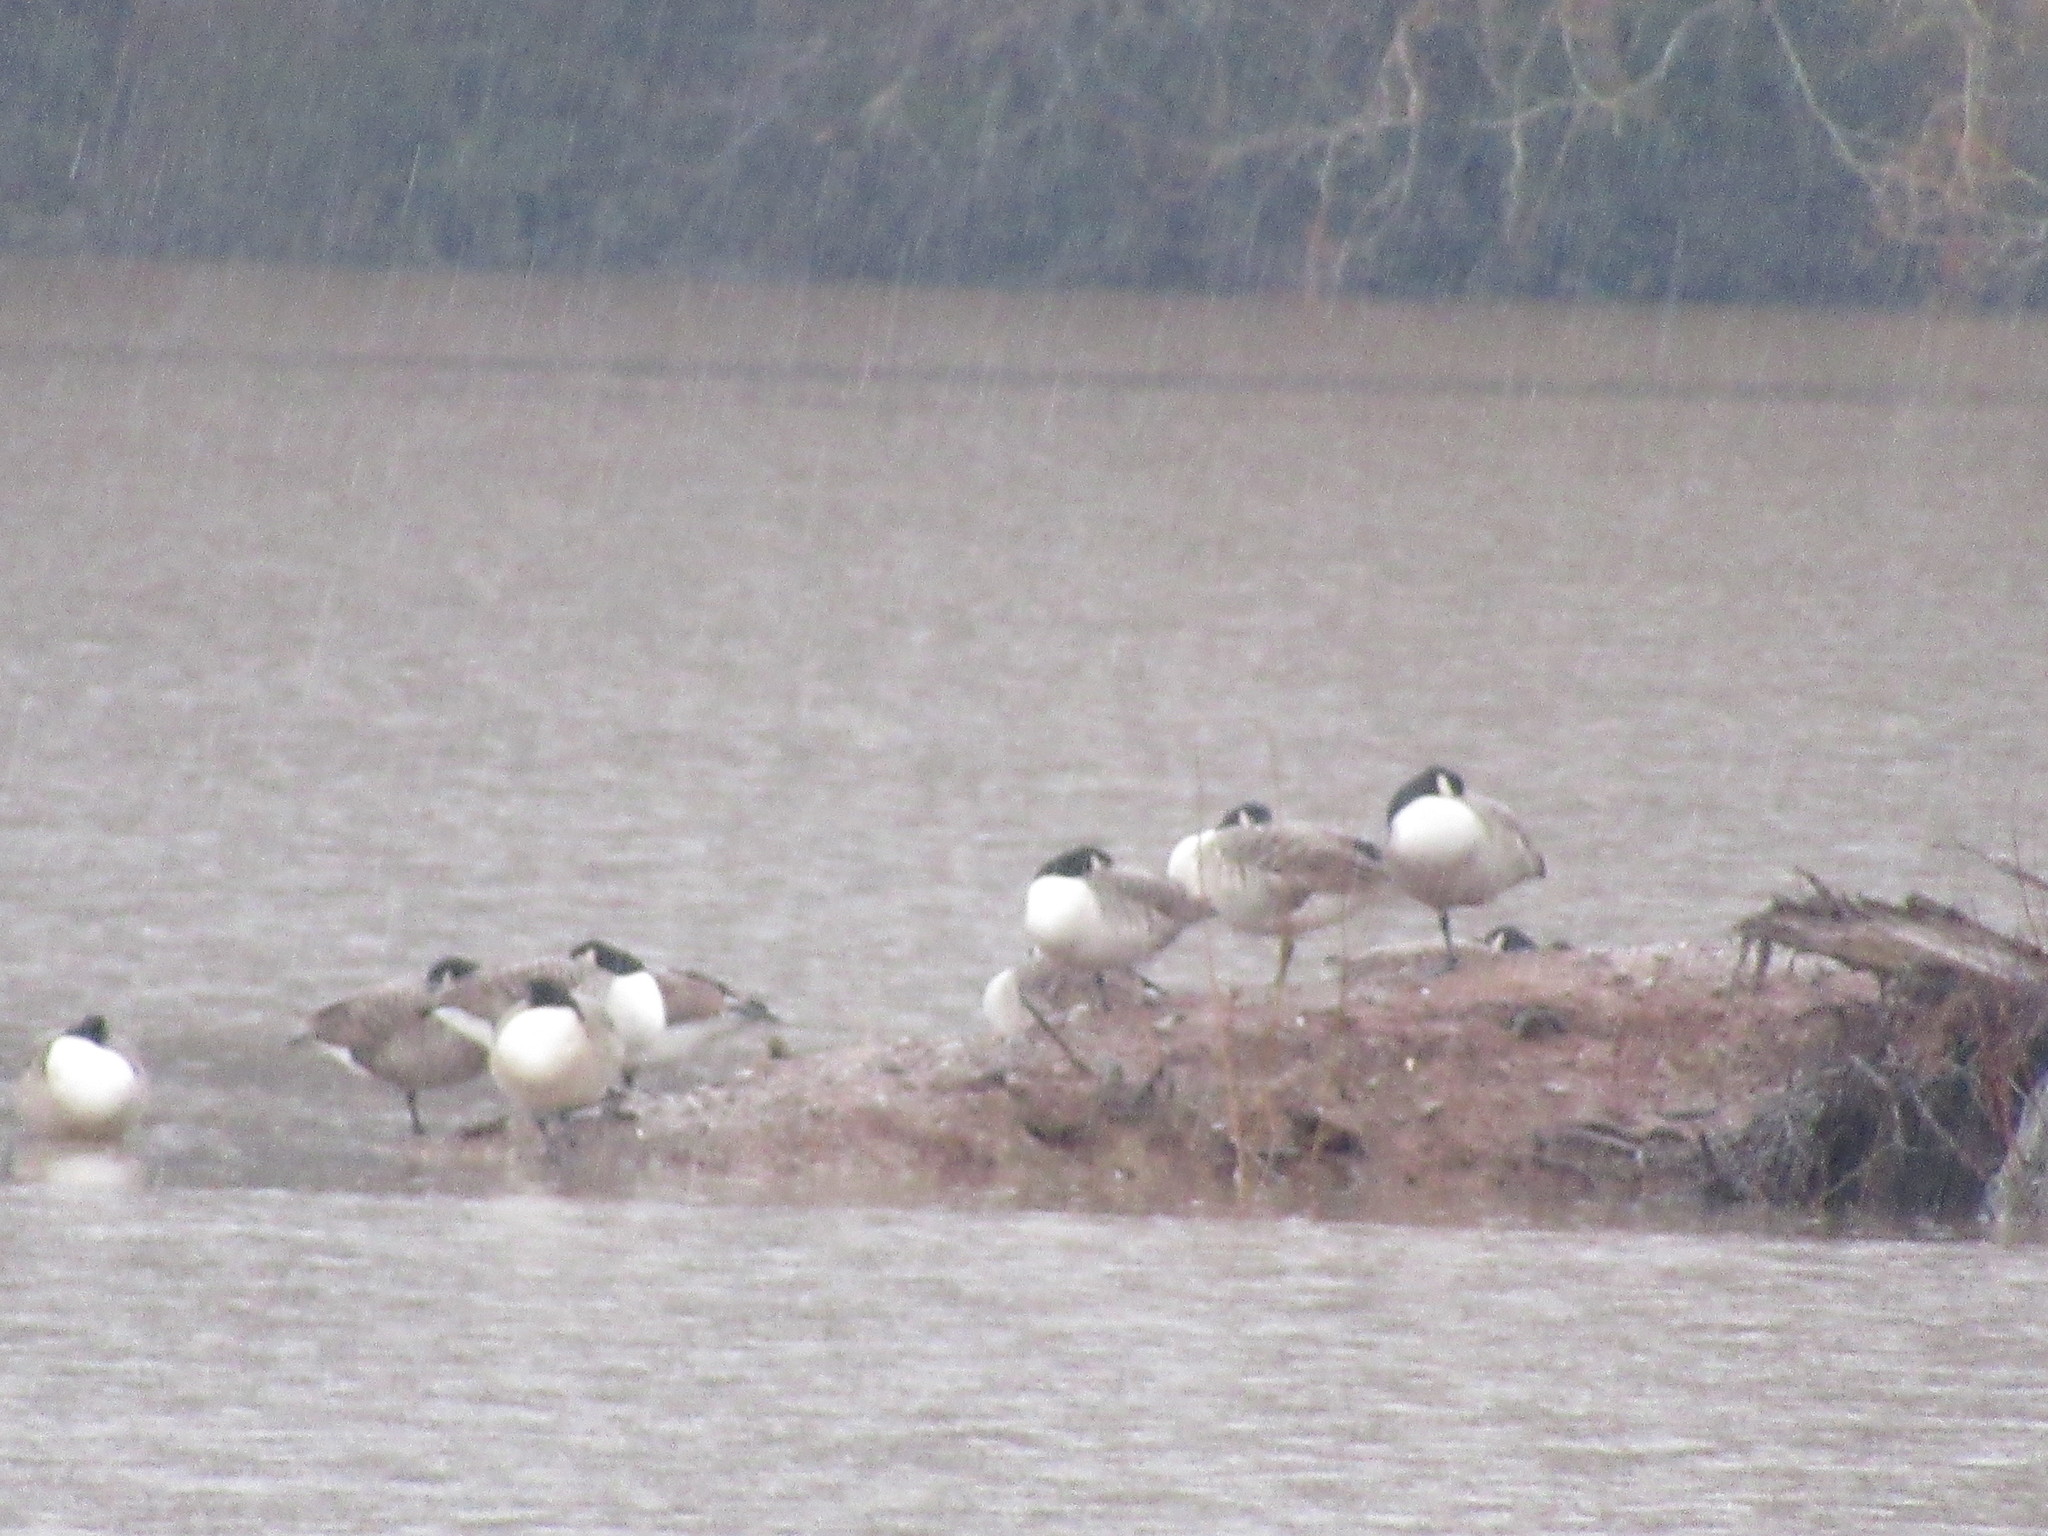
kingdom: Animalia
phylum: Chordata
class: Aves
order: Anseriformes
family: Anatidae
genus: Branta
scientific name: Branta canadensis
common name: Canada goose
